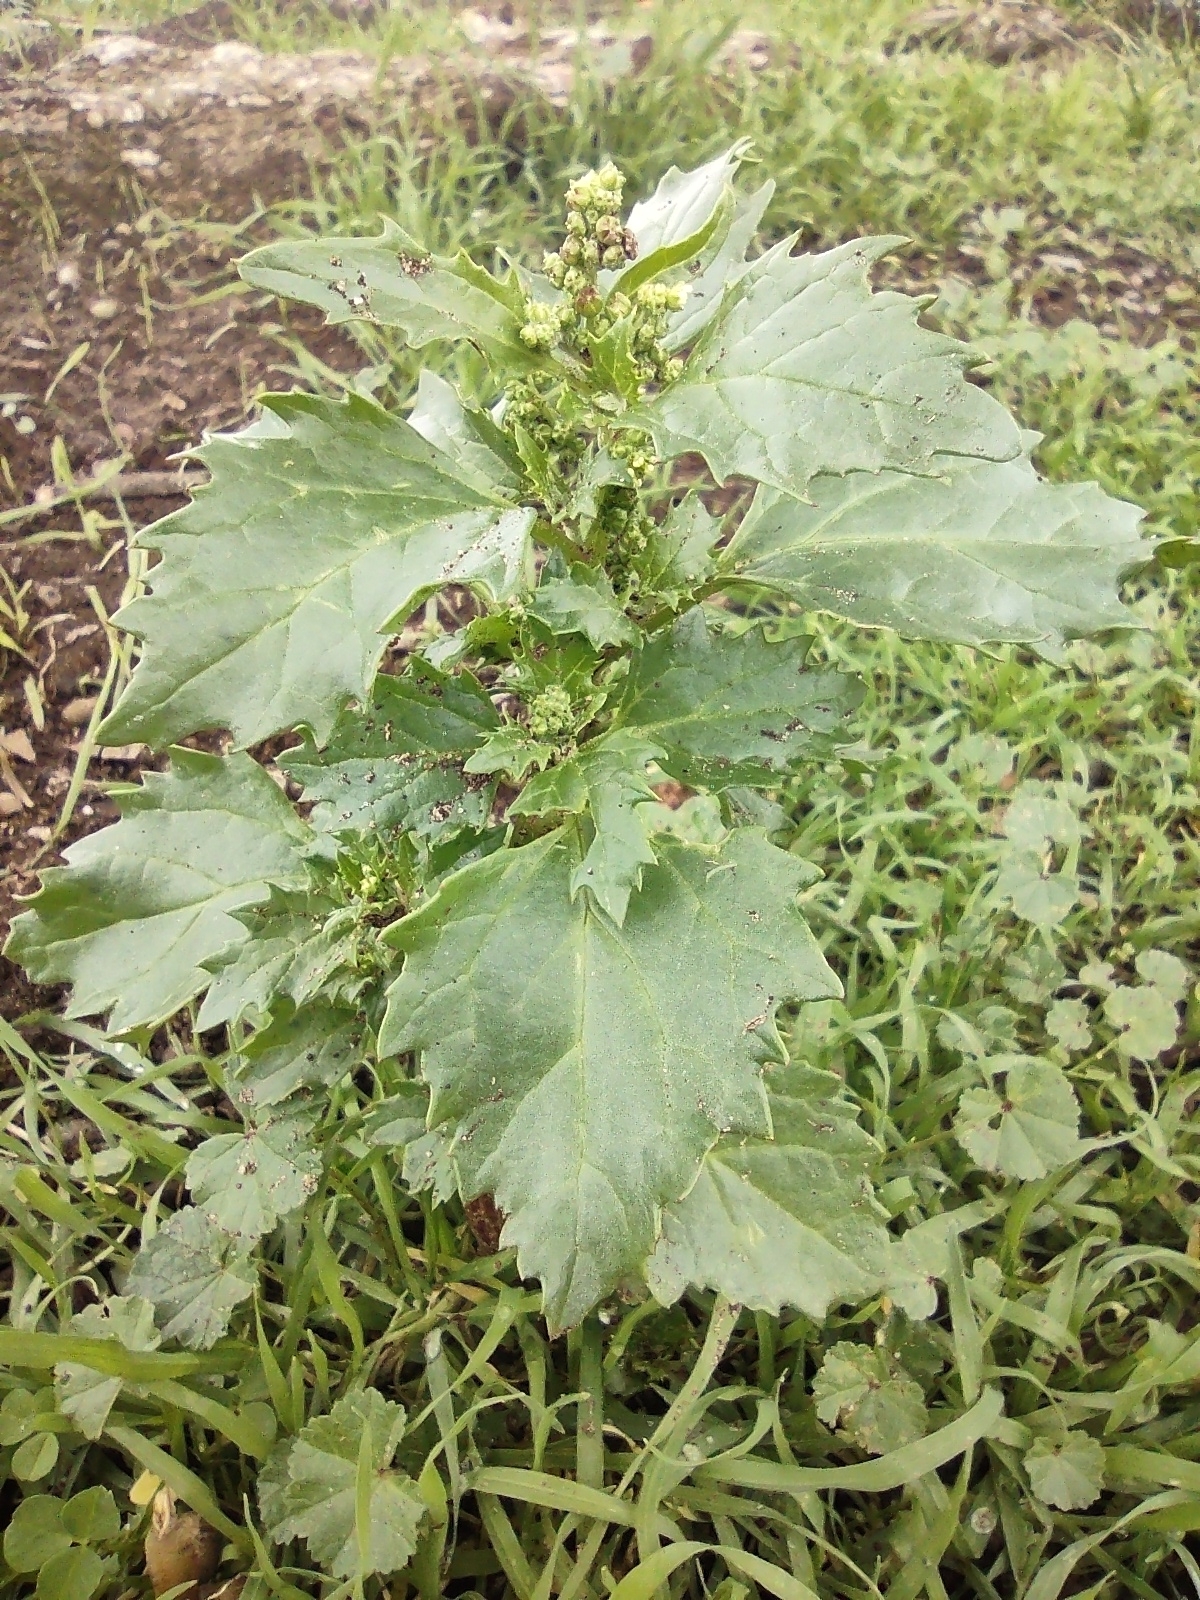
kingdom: Plantae
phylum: Tracheophyta
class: Magnoliopsida
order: Caryophyllales
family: Amaranthaceae
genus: Chenopodiastrum
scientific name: Chenopodiastrum murale
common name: Sowbane
